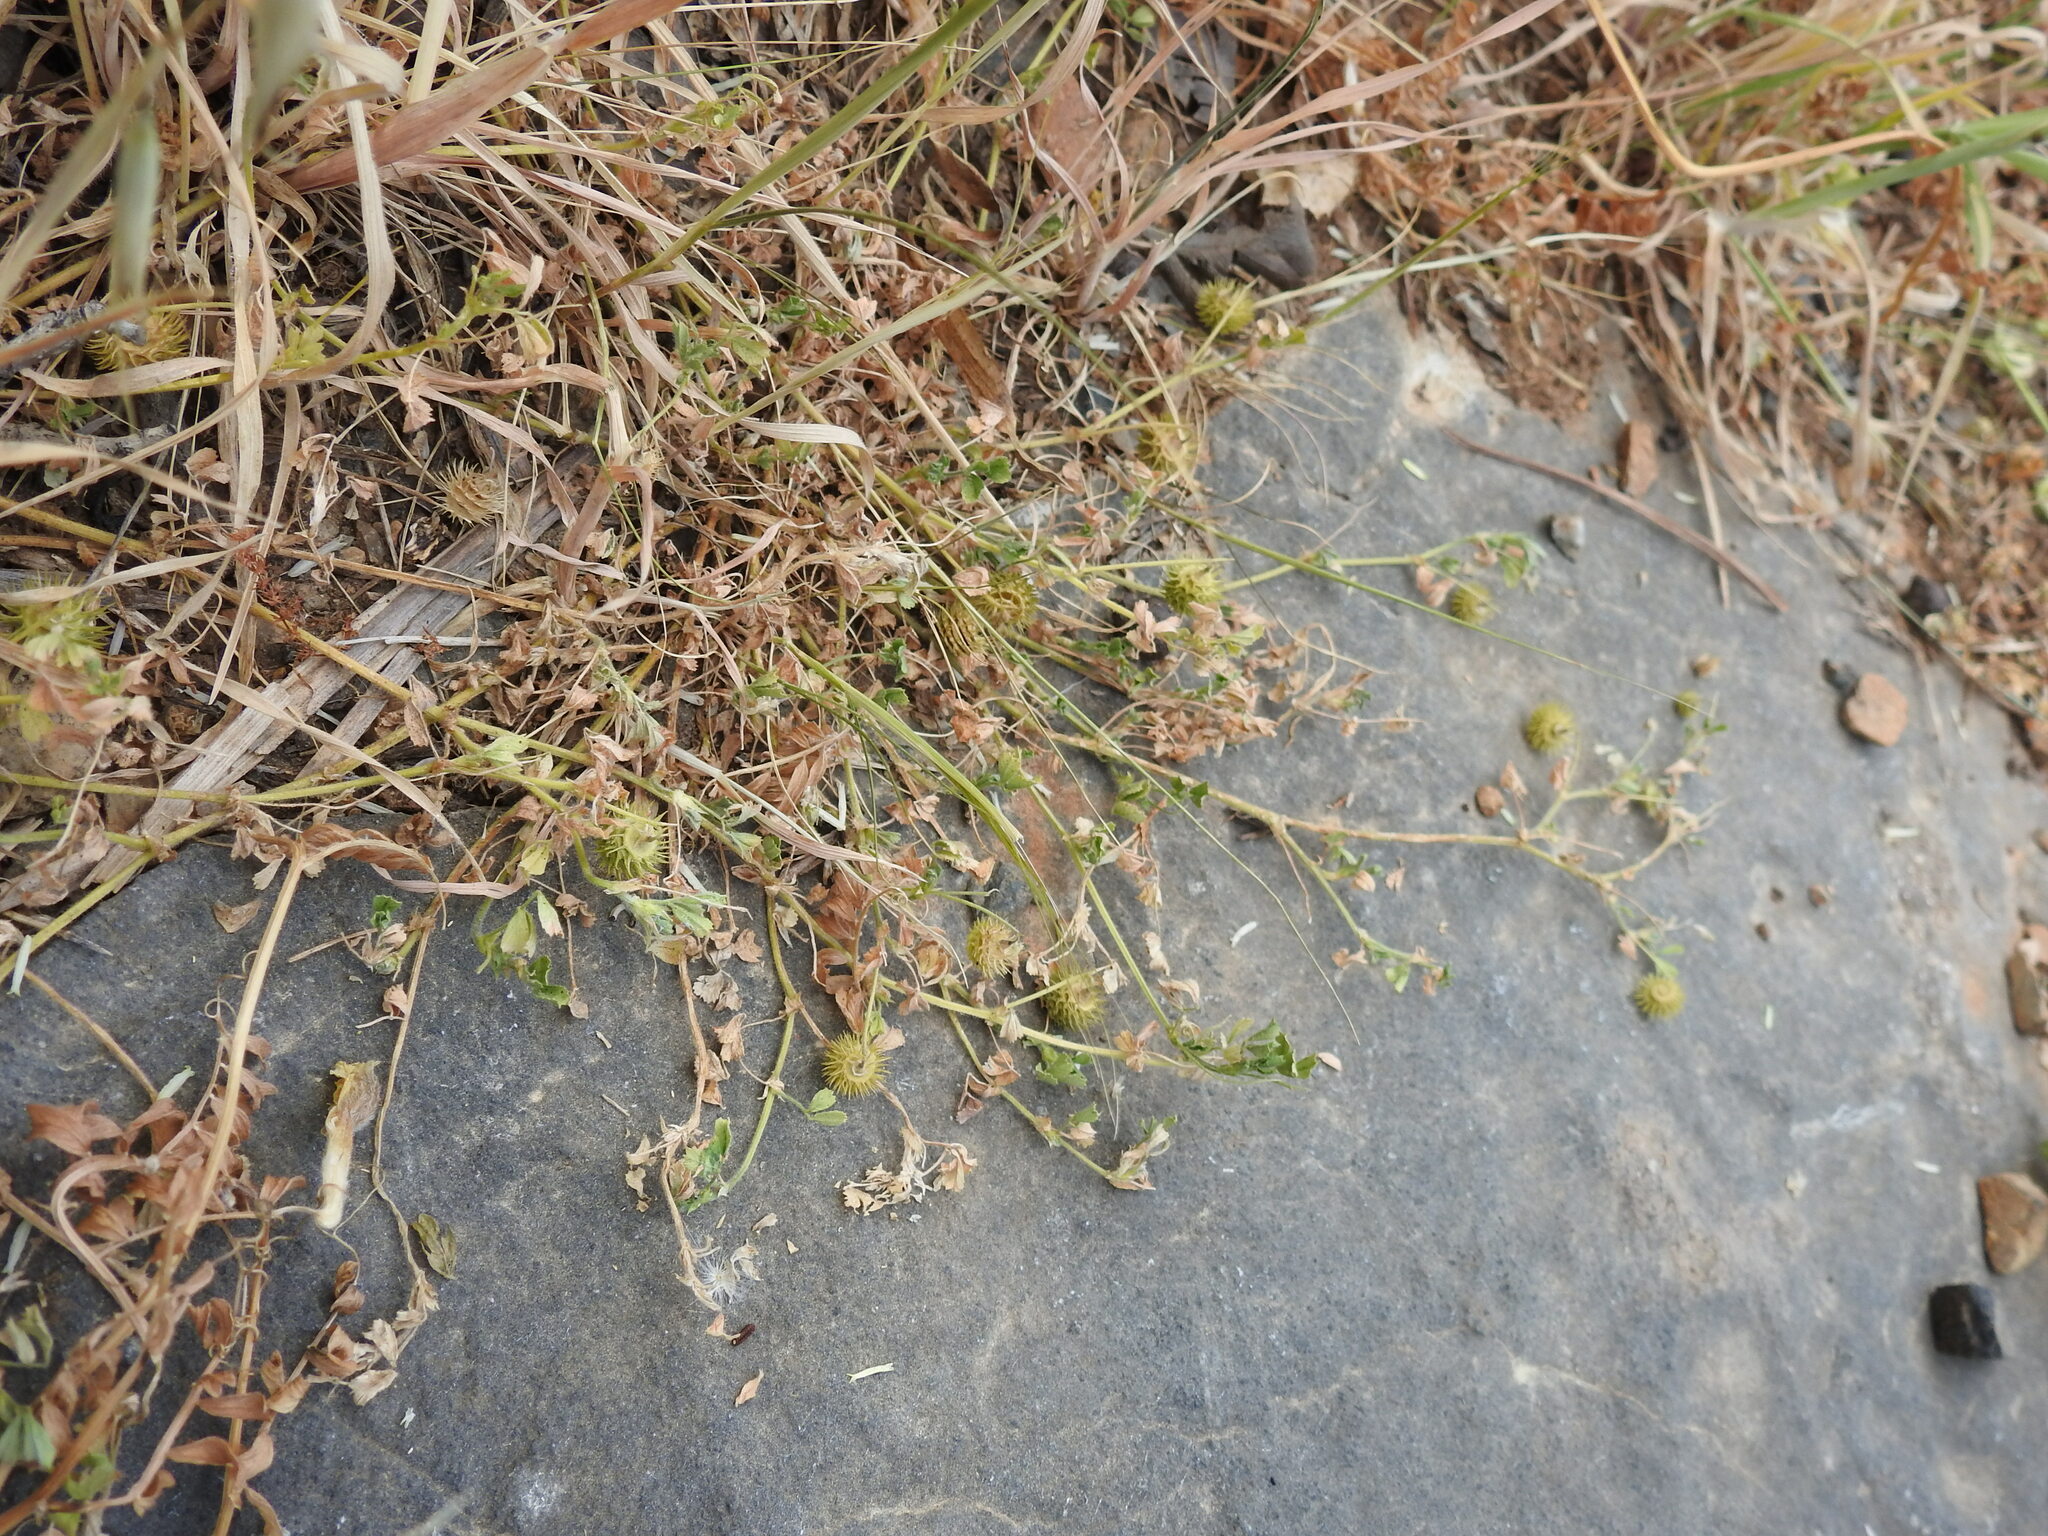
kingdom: Plantae
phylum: Tracheophyta
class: Magnoliopsida
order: Fabales
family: Fabaceae
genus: Medicago
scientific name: Medicago disciformis
